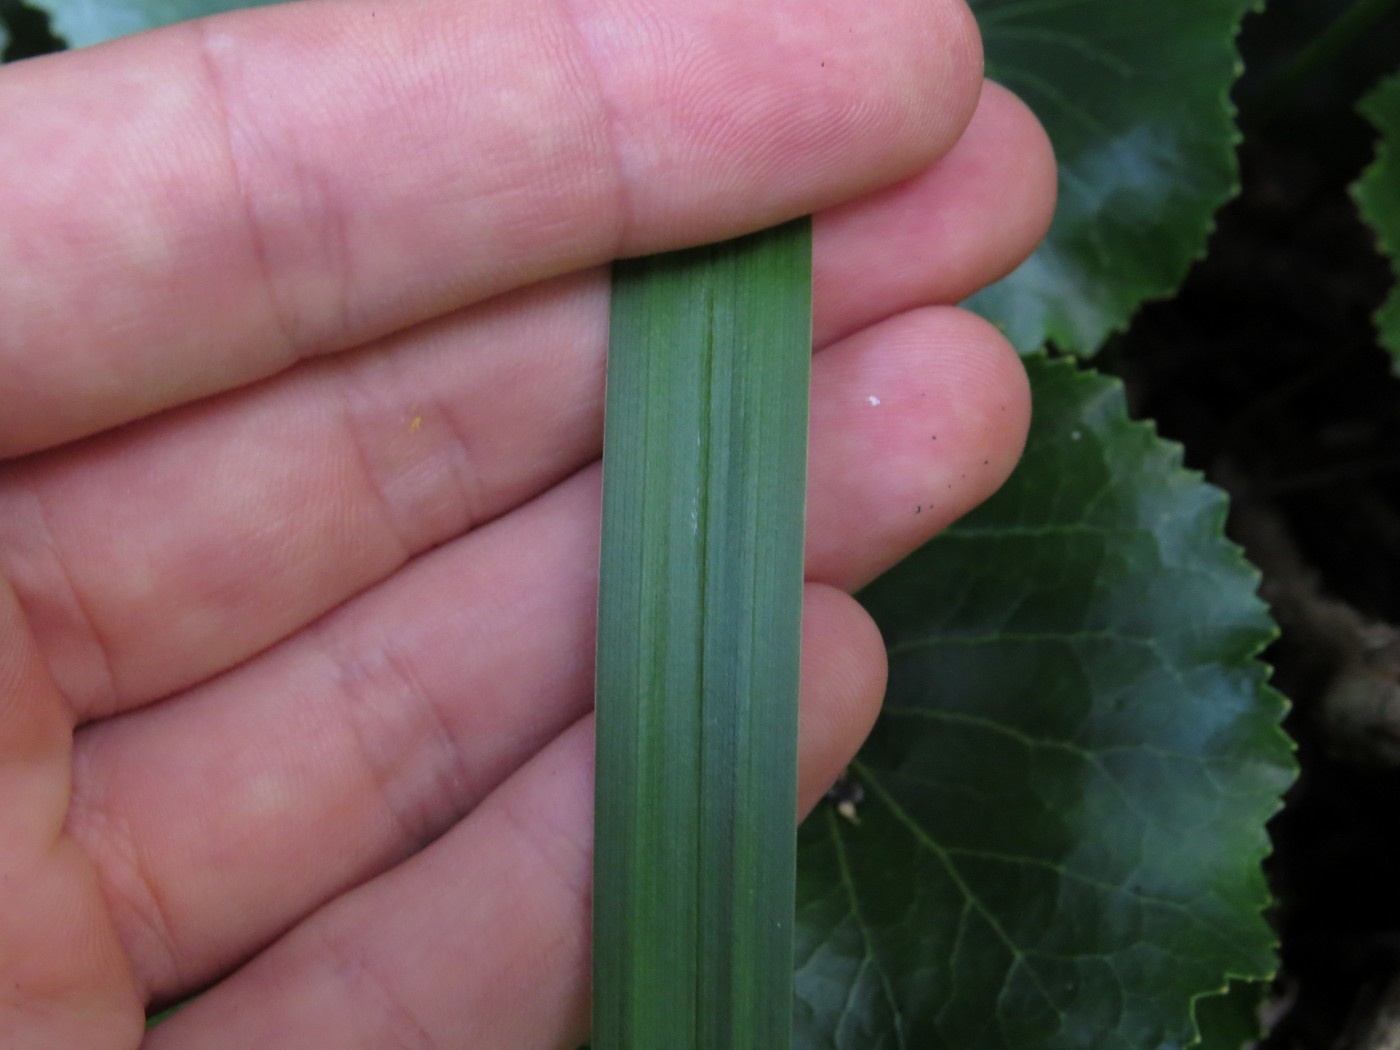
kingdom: Plantae
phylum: Tracheophyta
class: Liliopsida
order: Liliales
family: Melanthiaceae
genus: Stenanthium
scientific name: Stenanthium leimanthoides
